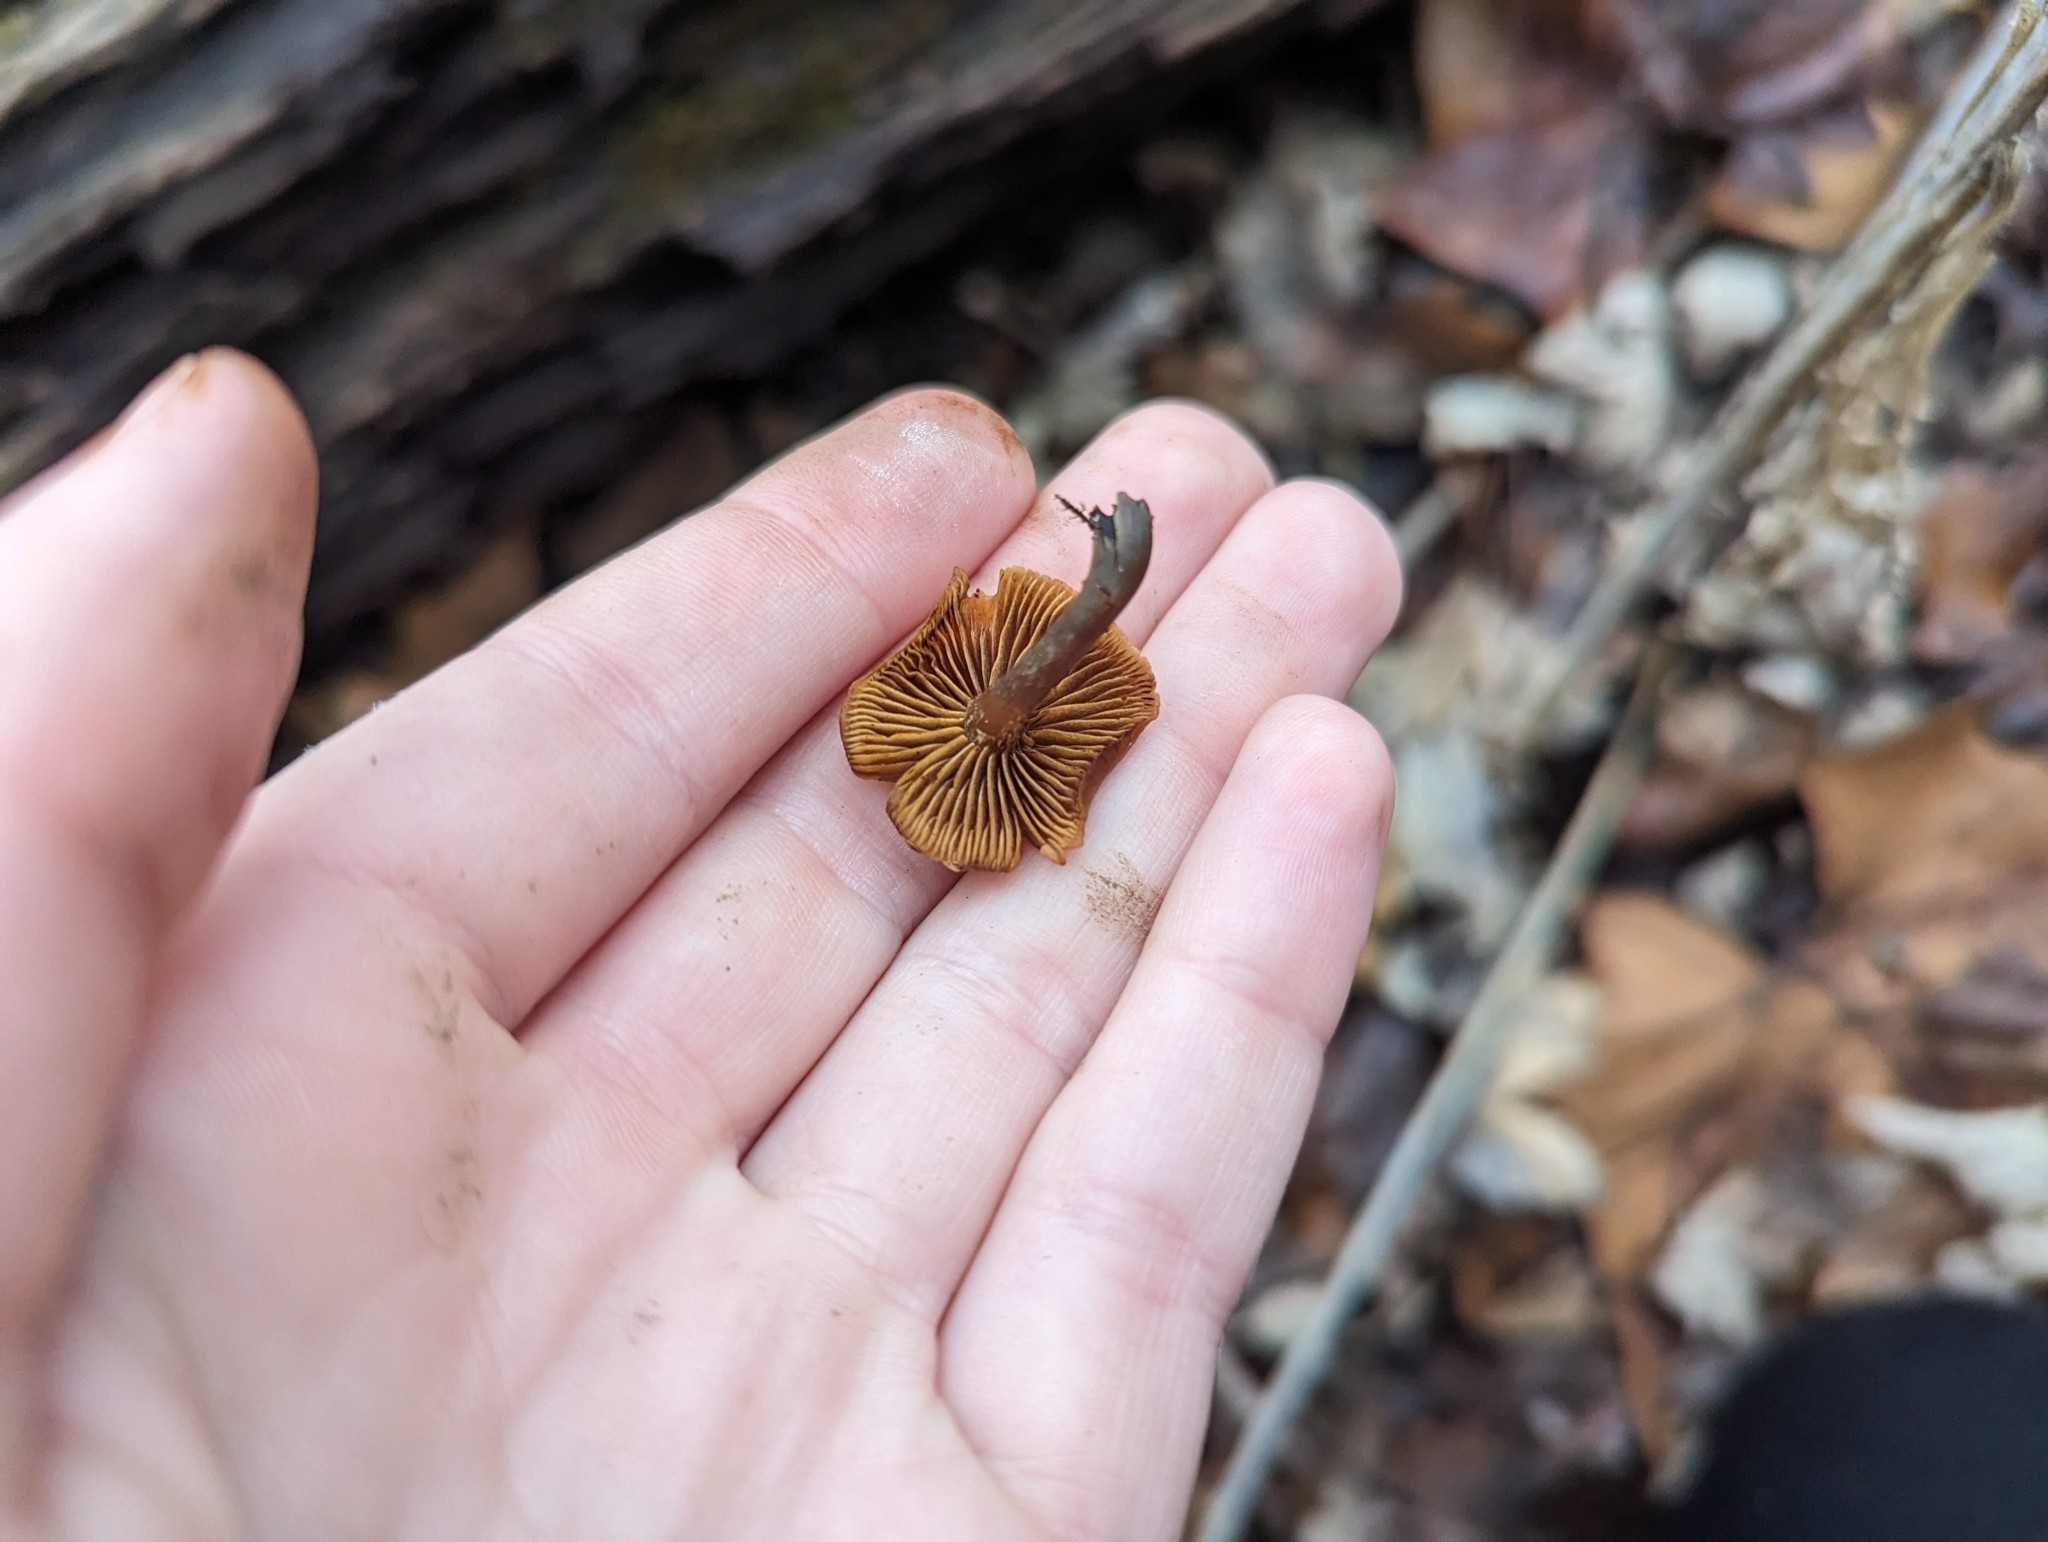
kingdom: Fungi
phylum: Basidiomycota
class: Agaricomycetes
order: Agaricales
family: Hymenogastraceae
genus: Galerina
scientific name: Galerina marginata
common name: Funeral bell
